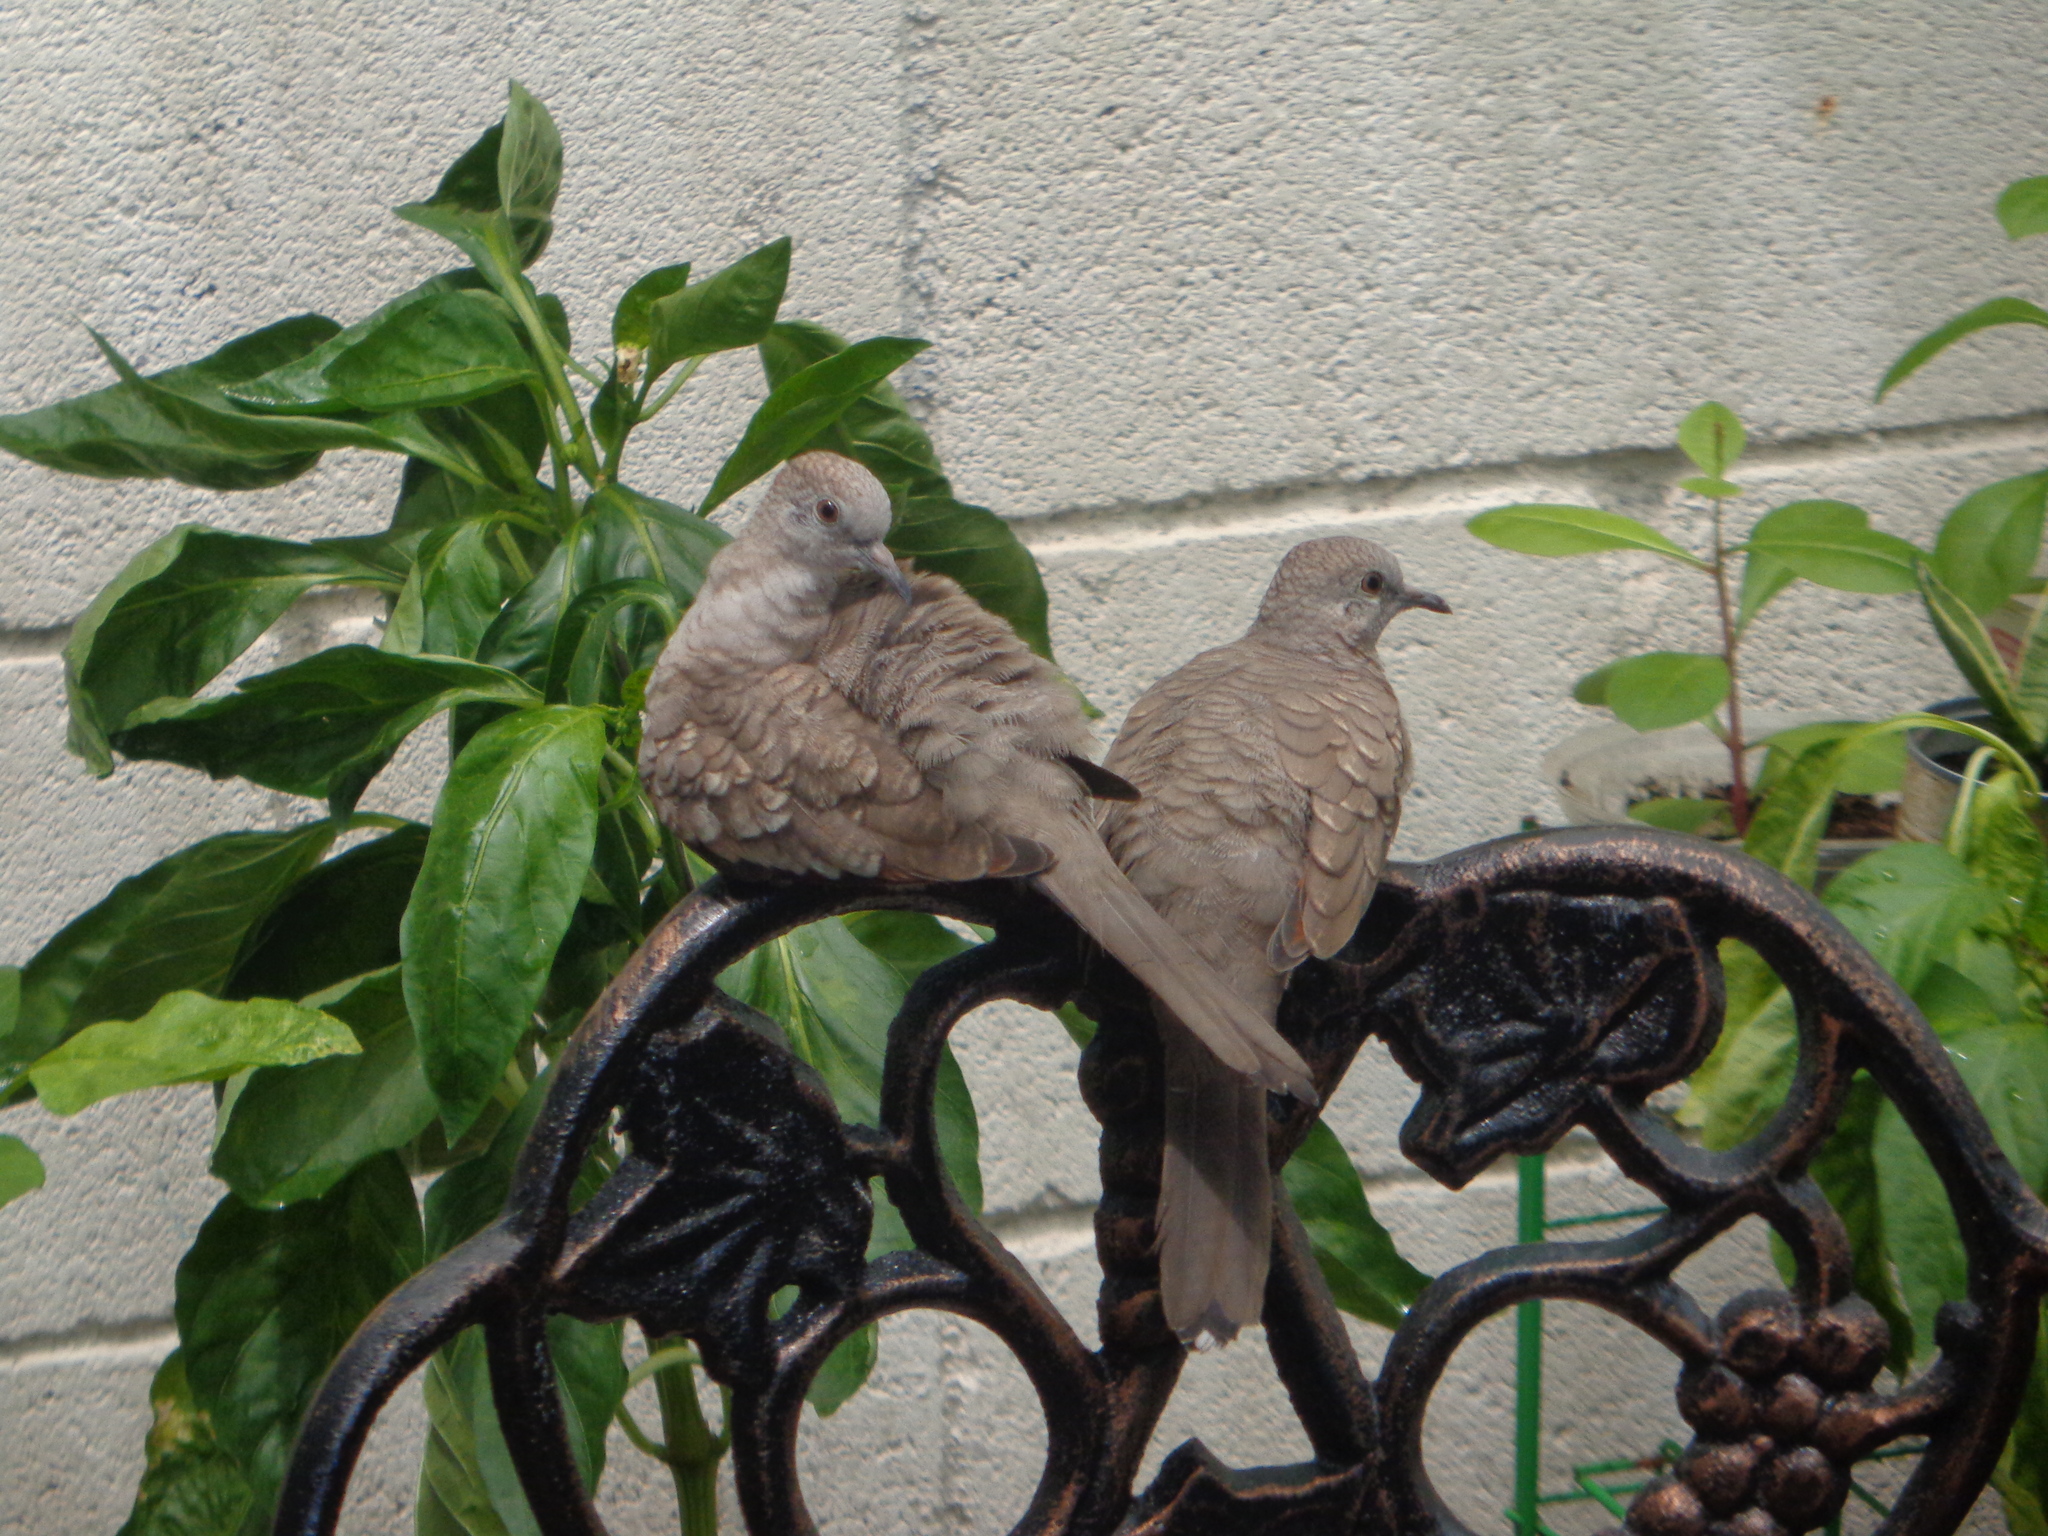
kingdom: Animalia
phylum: Chordata
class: Aves
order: Columbiformes
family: Columbidae
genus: Columbina
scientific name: Columbina inca
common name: Inca dove
